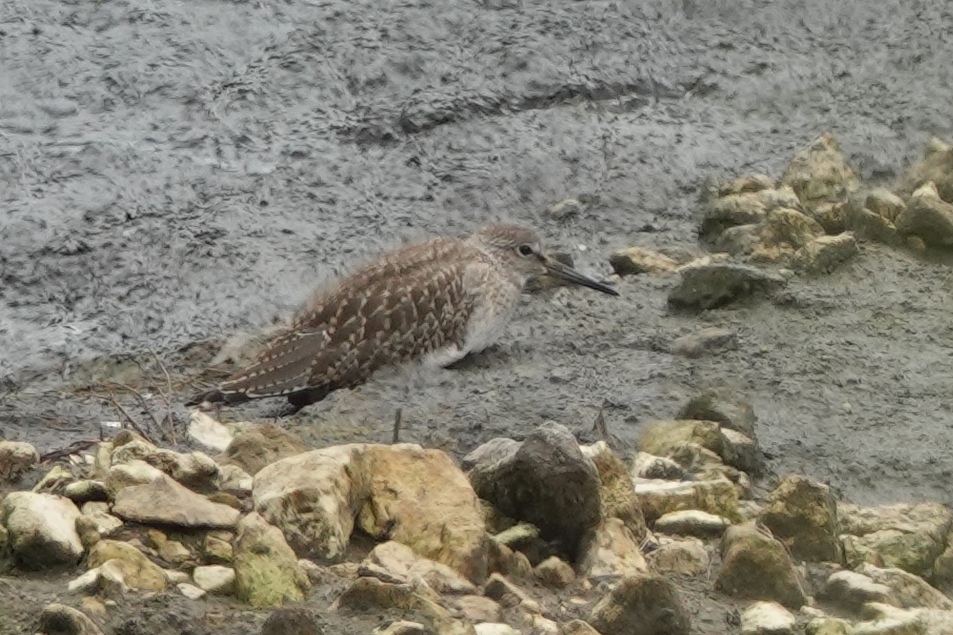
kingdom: Animalia
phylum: Chordata
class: Aves
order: Charadriiformes
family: Scolopacidae
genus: Tringa
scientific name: Tringa totanus
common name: Common redshank
